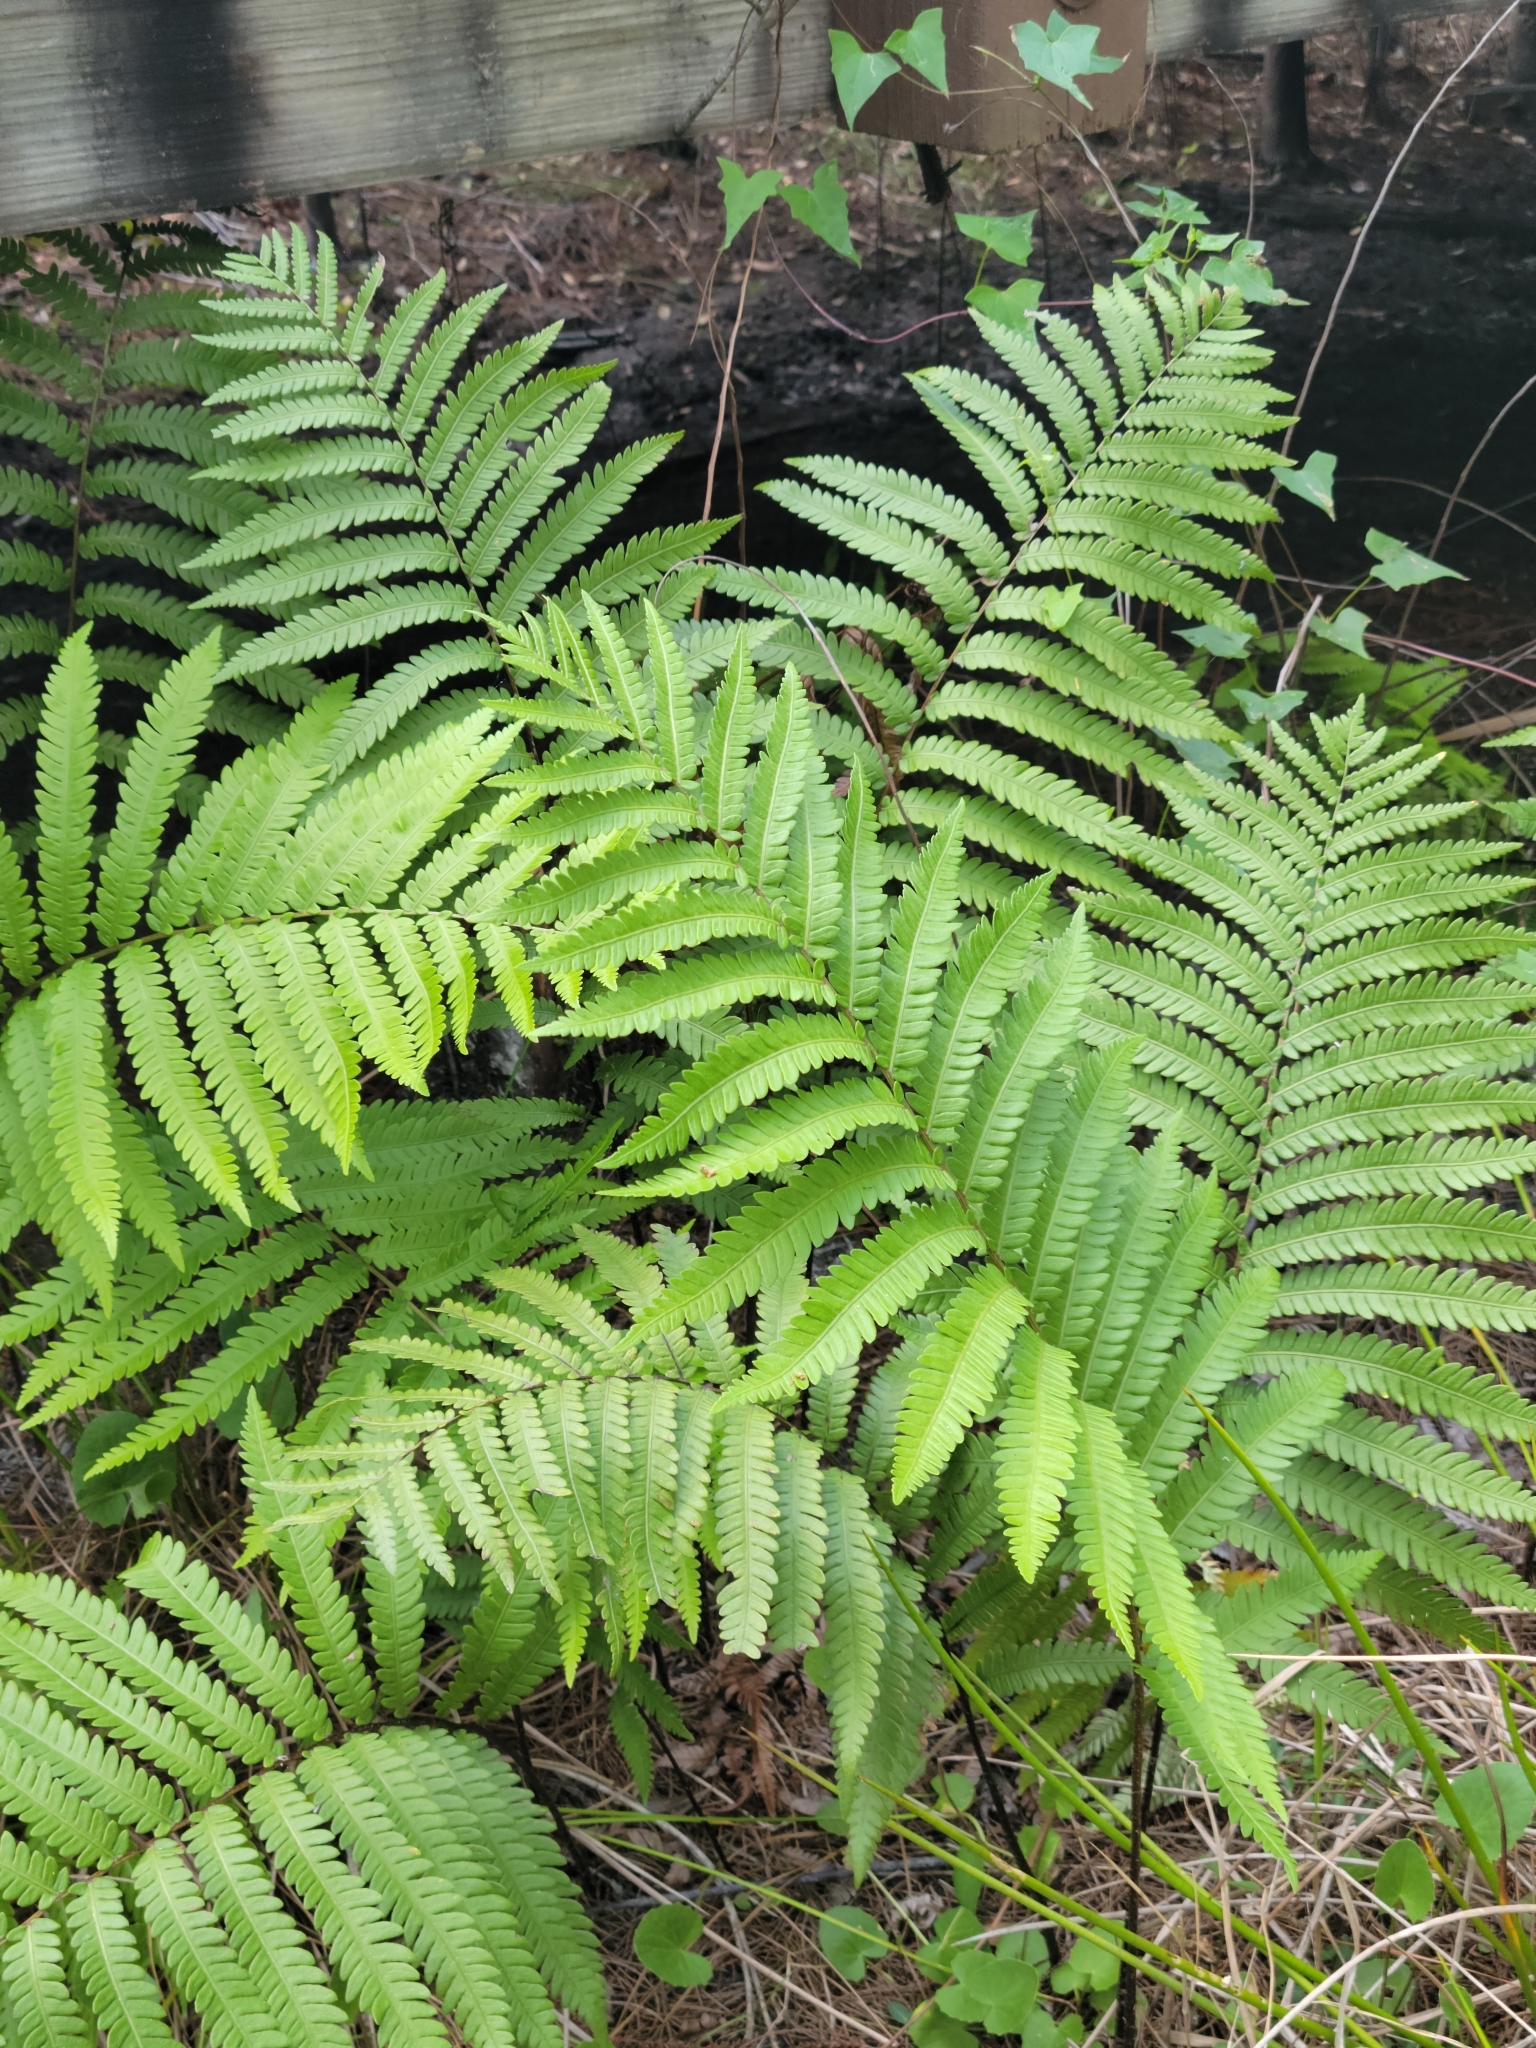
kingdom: Plantae
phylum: Tracheophyta
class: Polypodiopsida
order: Polypodiales
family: Blechnaceae
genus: Anchistea
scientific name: Anchistea virginica
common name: Virginia chain fern
